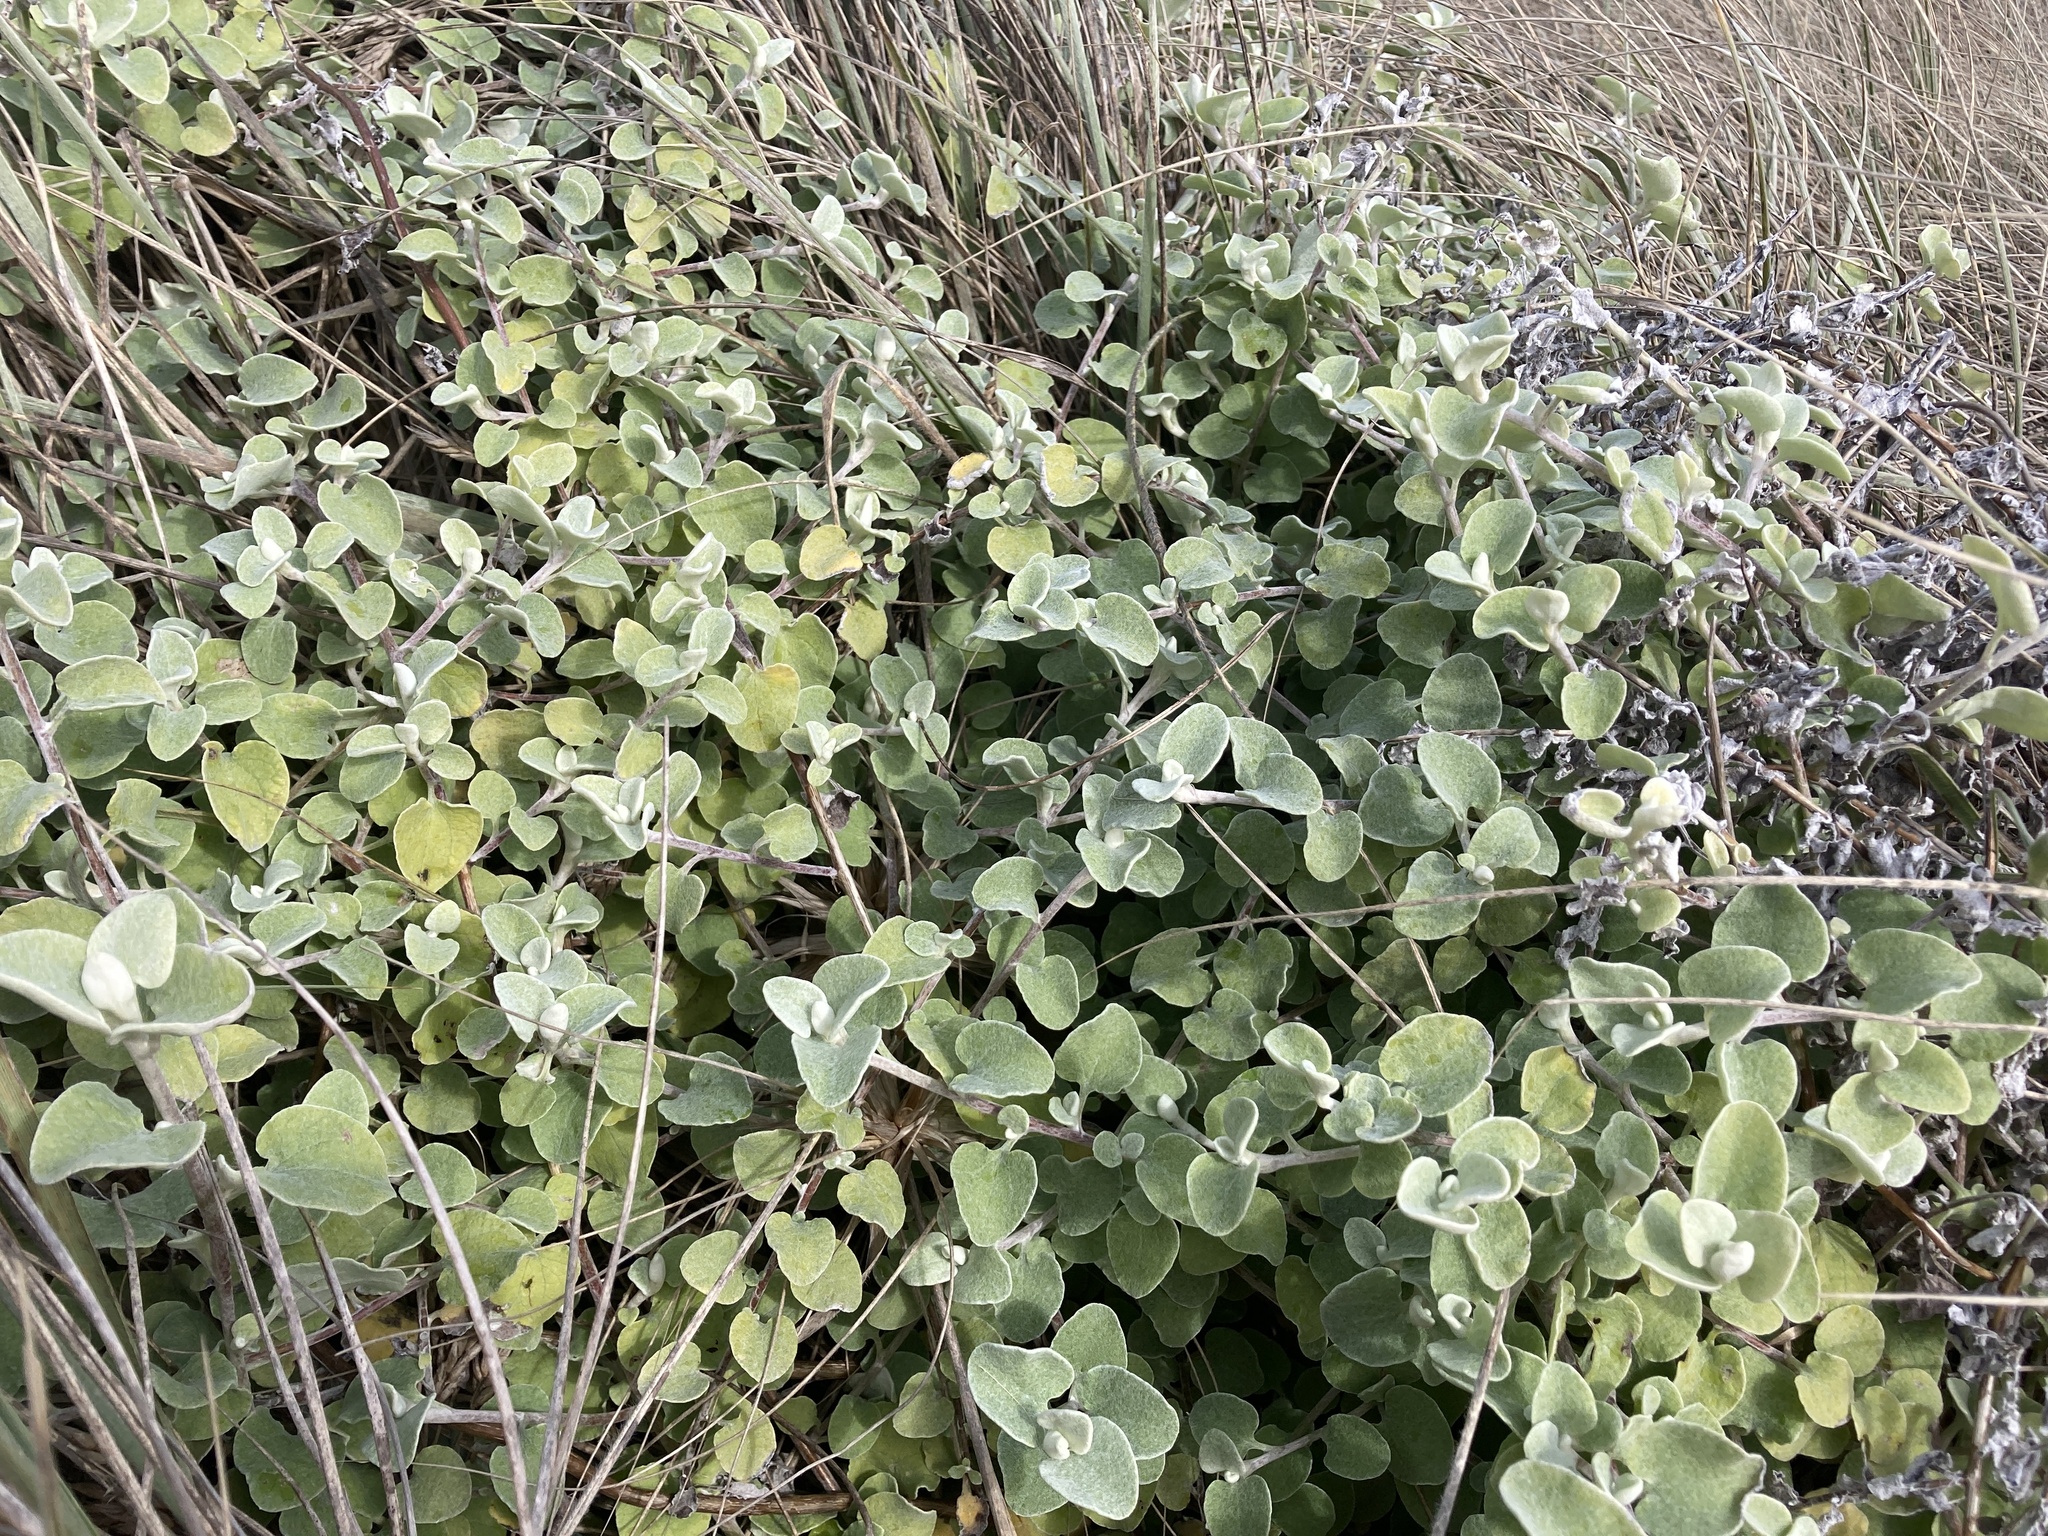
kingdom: Plantae
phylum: Tracheophyta
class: Magnoliopsida
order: Asterales
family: Asteraceae
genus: Helichrysum
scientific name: Helichrysum petiolare
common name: Licorice-plant
